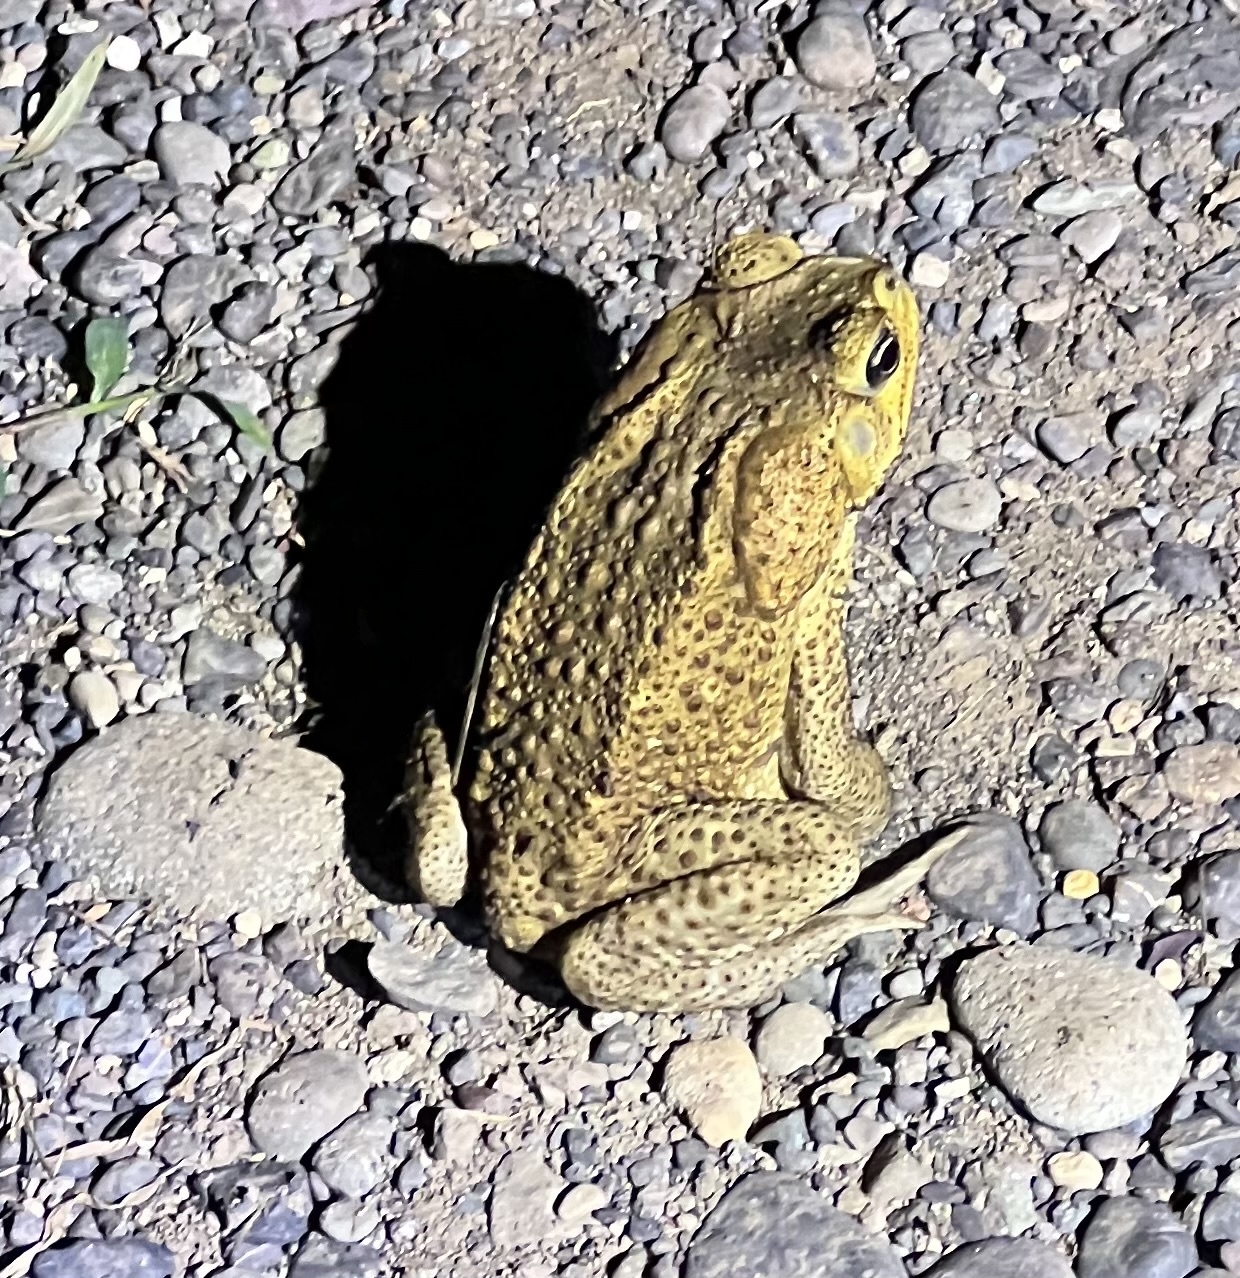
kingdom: Animalia
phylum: Chordata
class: Amphibia
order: Anura
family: Bufonidae
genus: Rhinella
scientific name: Rhinella horribilis
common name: Mesoamerican cane toad
